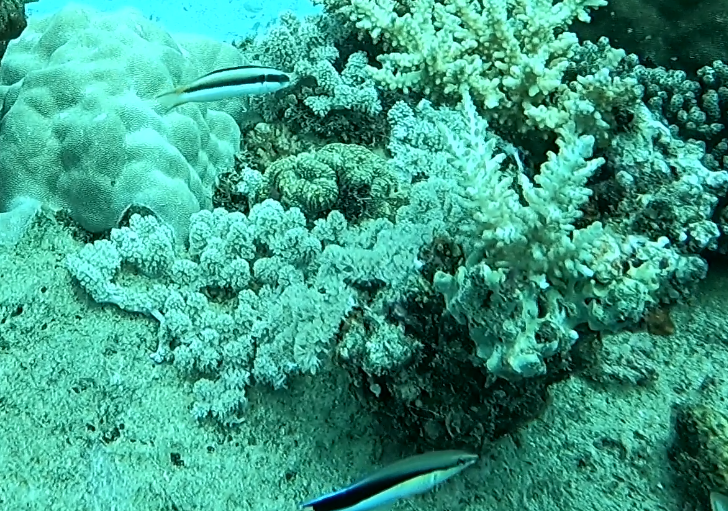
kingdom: Animalia
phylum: Chordata
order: Perciformes
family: Labridae
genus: Labroides
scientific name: Labroides dimidiatus
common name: Blue diesel wrasse
